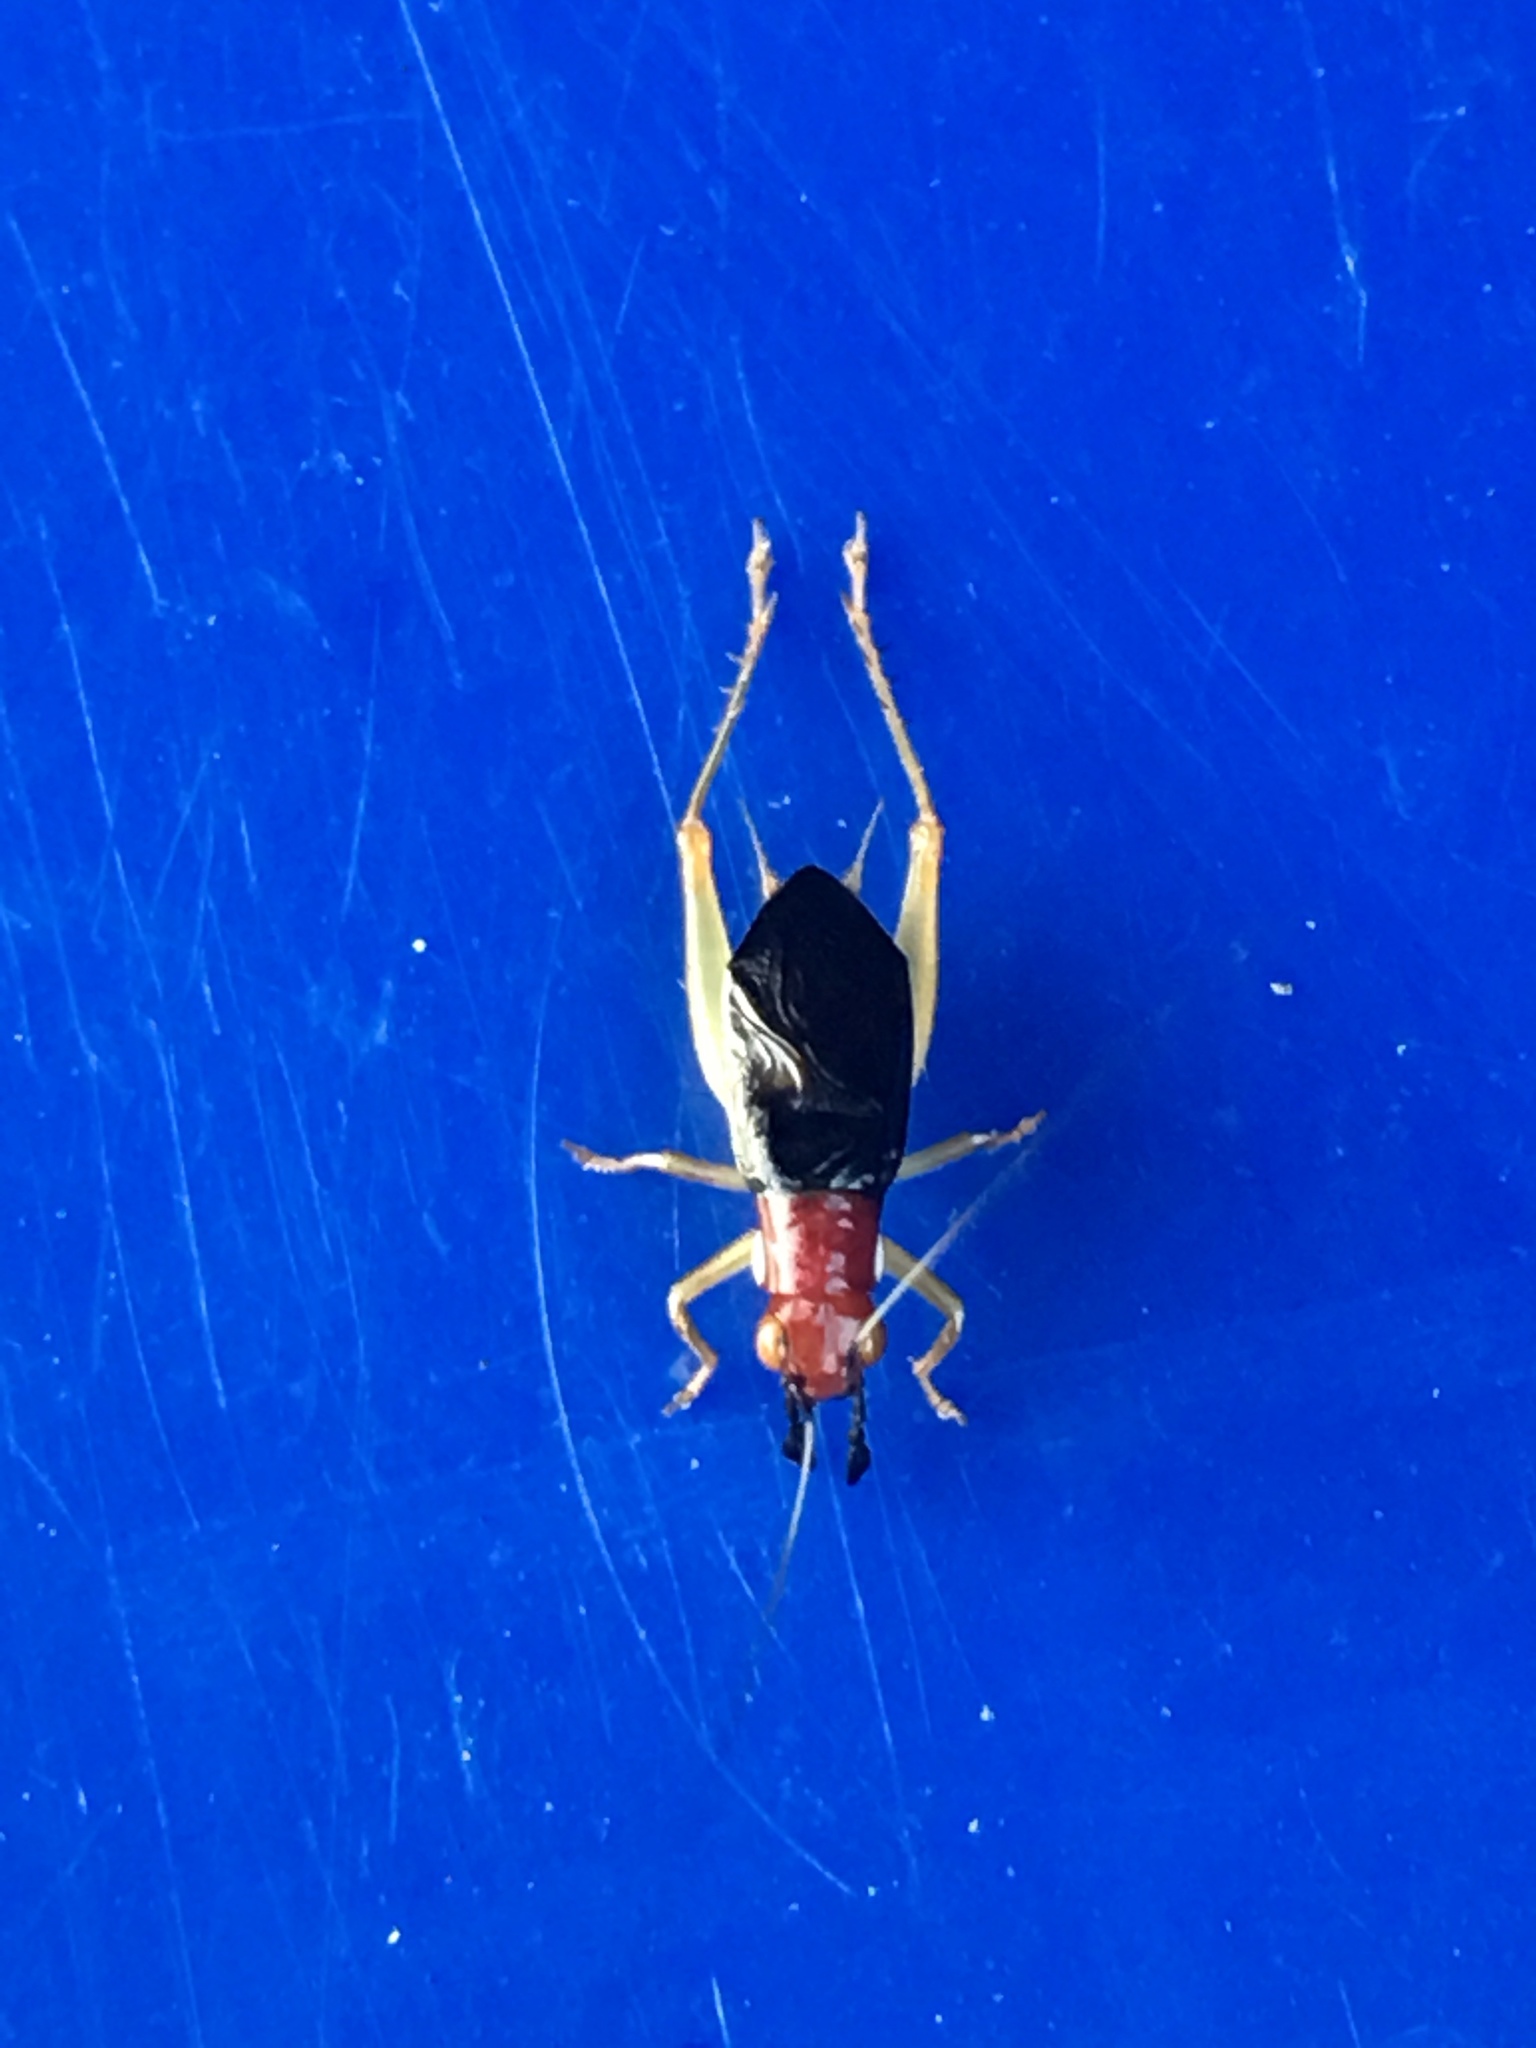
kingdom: Animalia
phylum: Arthropoda
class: Insecta
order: Orthoptera
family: Trigonidiidae
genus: Phyllopalpus
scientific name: Phyllopalpus pulchellus
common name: Handsome trig
